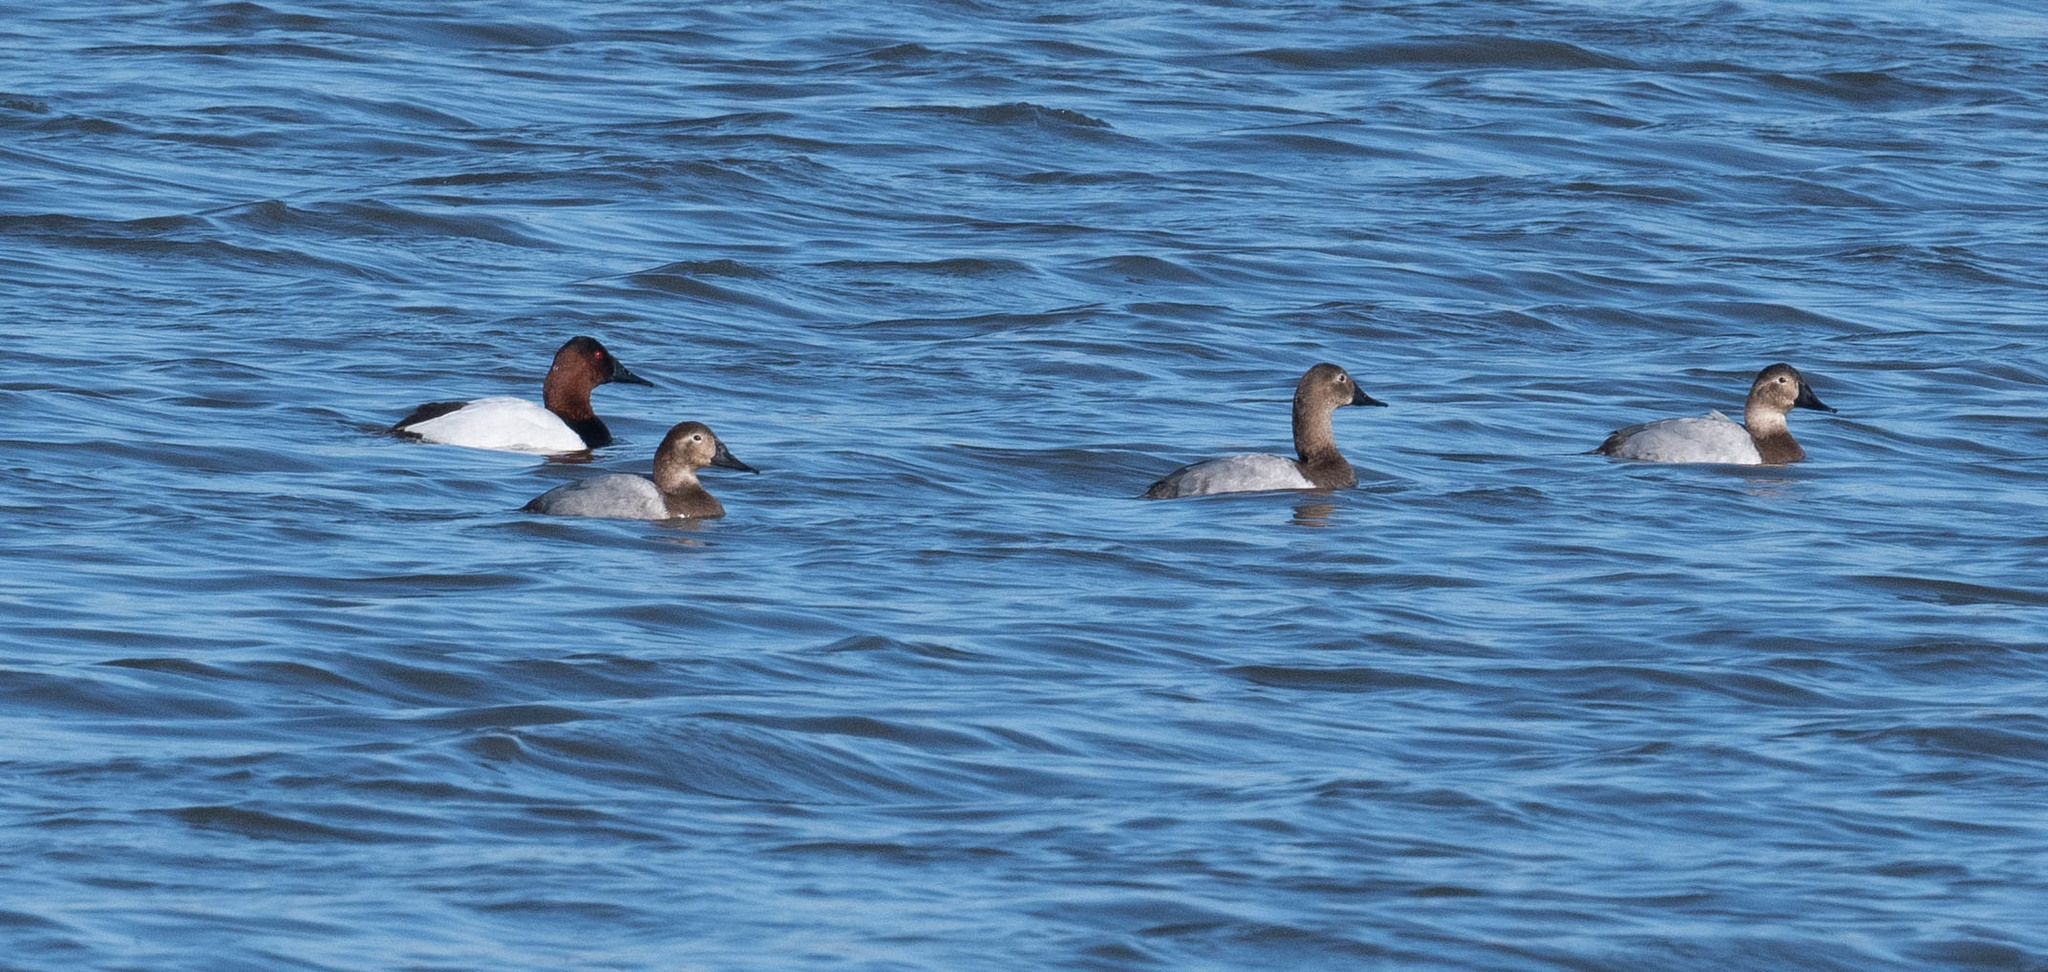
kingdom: Animalia
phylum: Chordata
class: Aves
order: Anseriformes
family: Anatidae
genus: Aythya
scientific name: Aythya valisineria
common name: Canvasback
